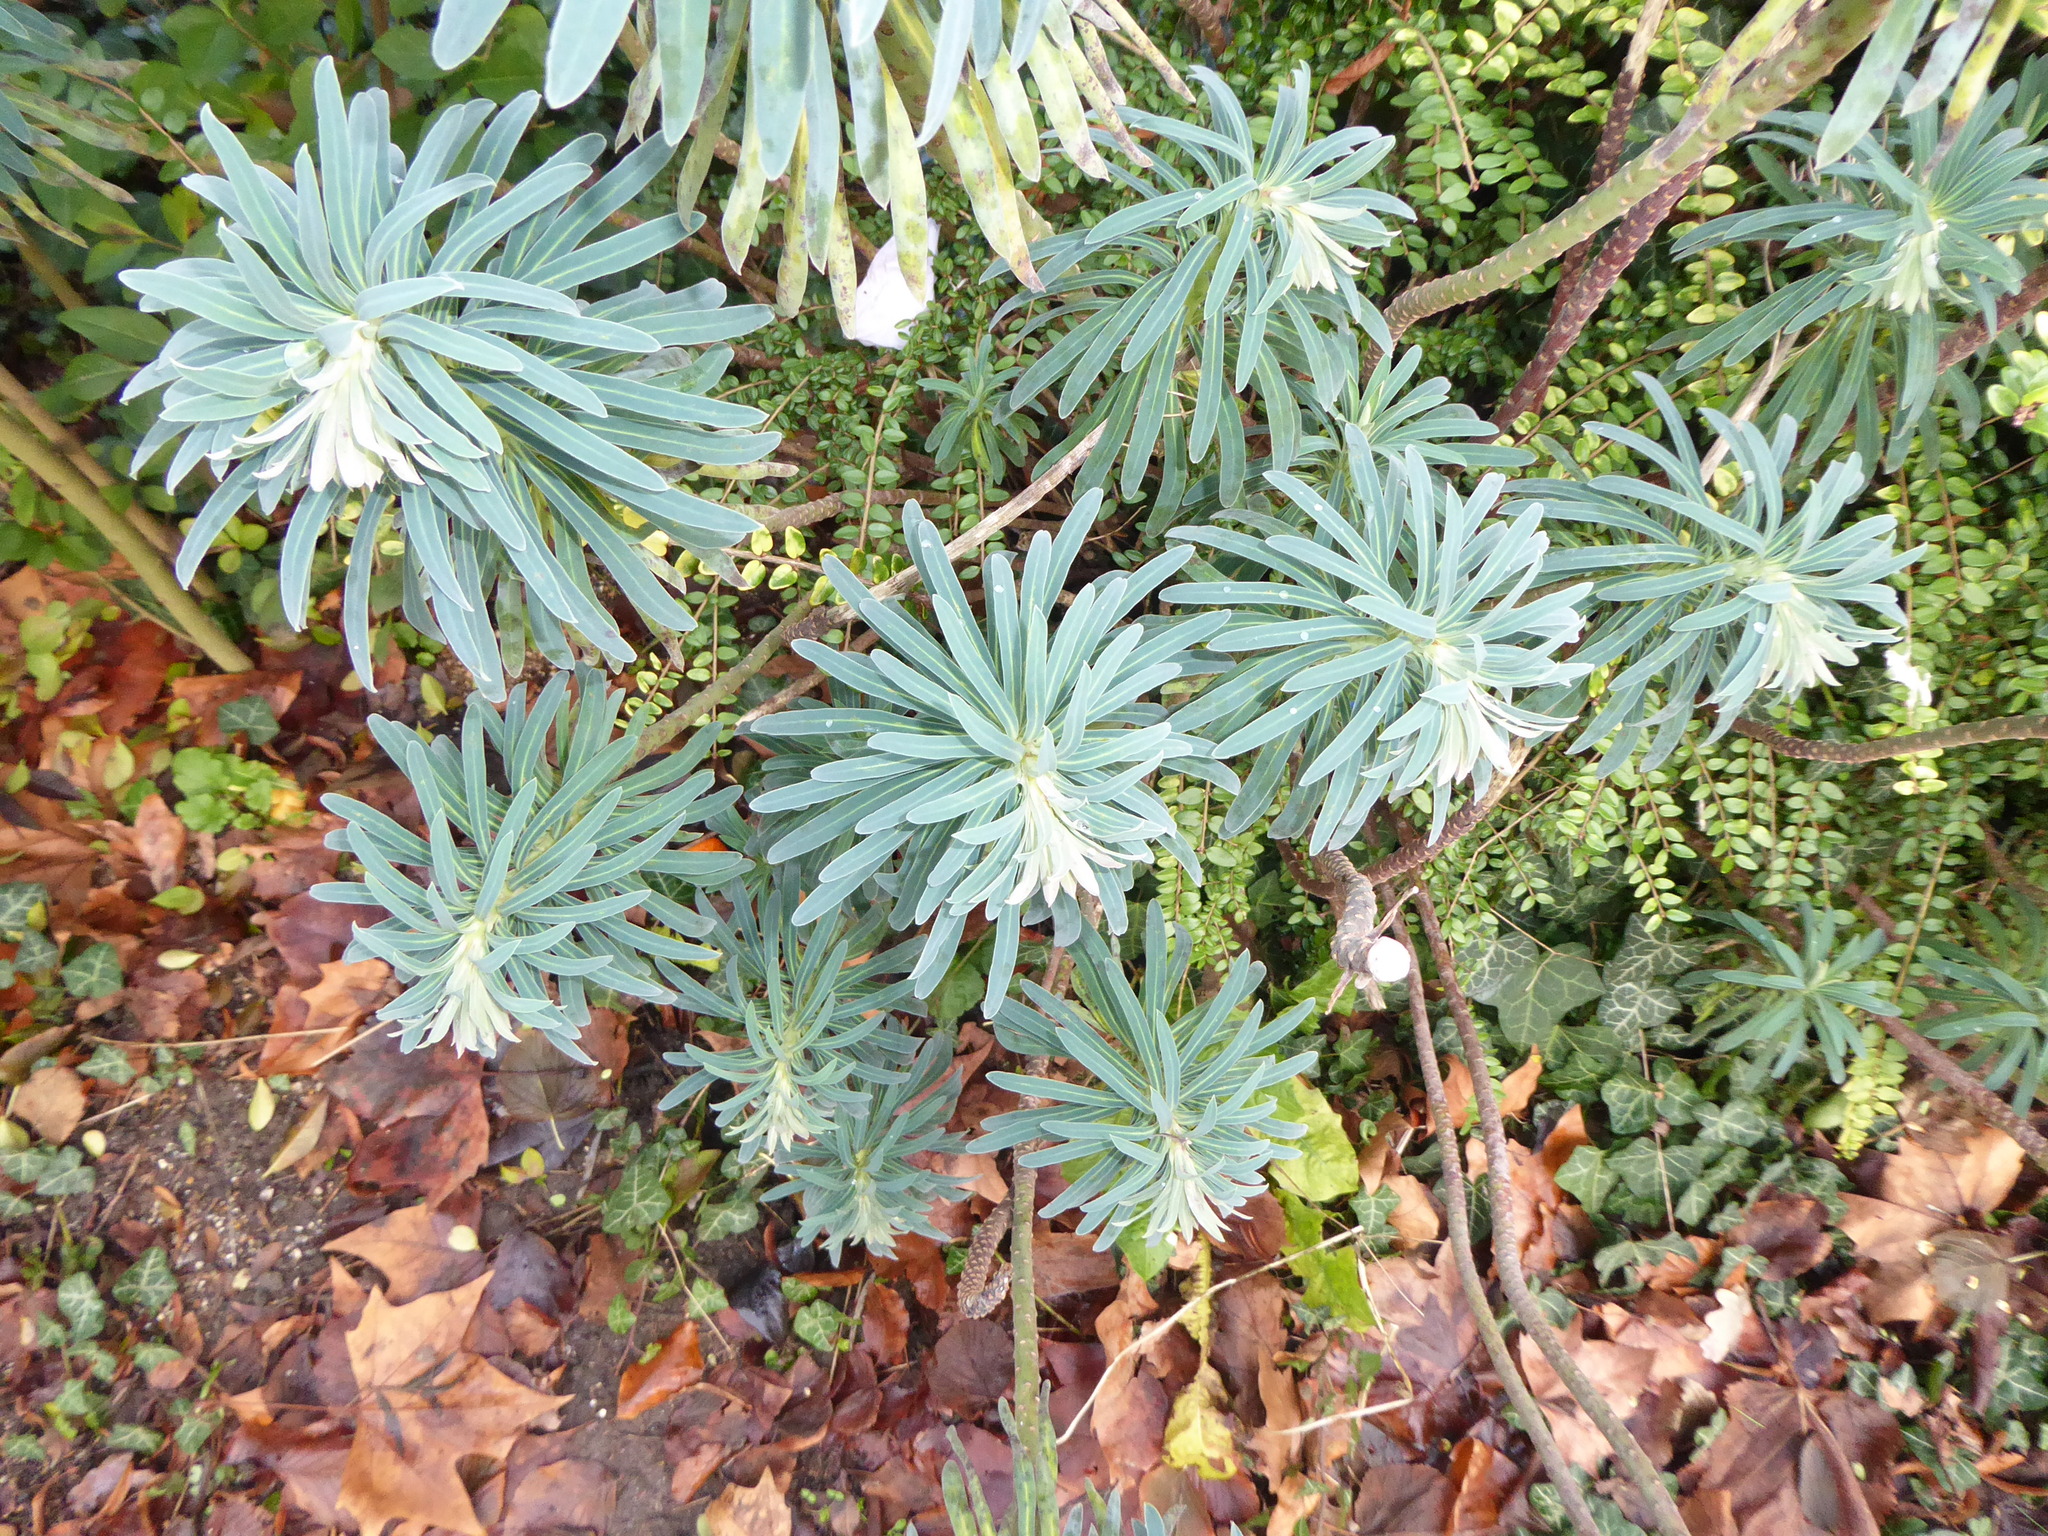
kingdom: Plantae
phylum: Tracheophyta
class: Magnoliopsida
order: Malpighiales
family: Euphorbiaceae
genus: Euphorbia
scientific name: Euphorbia characias
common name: Mediterranean spurge
